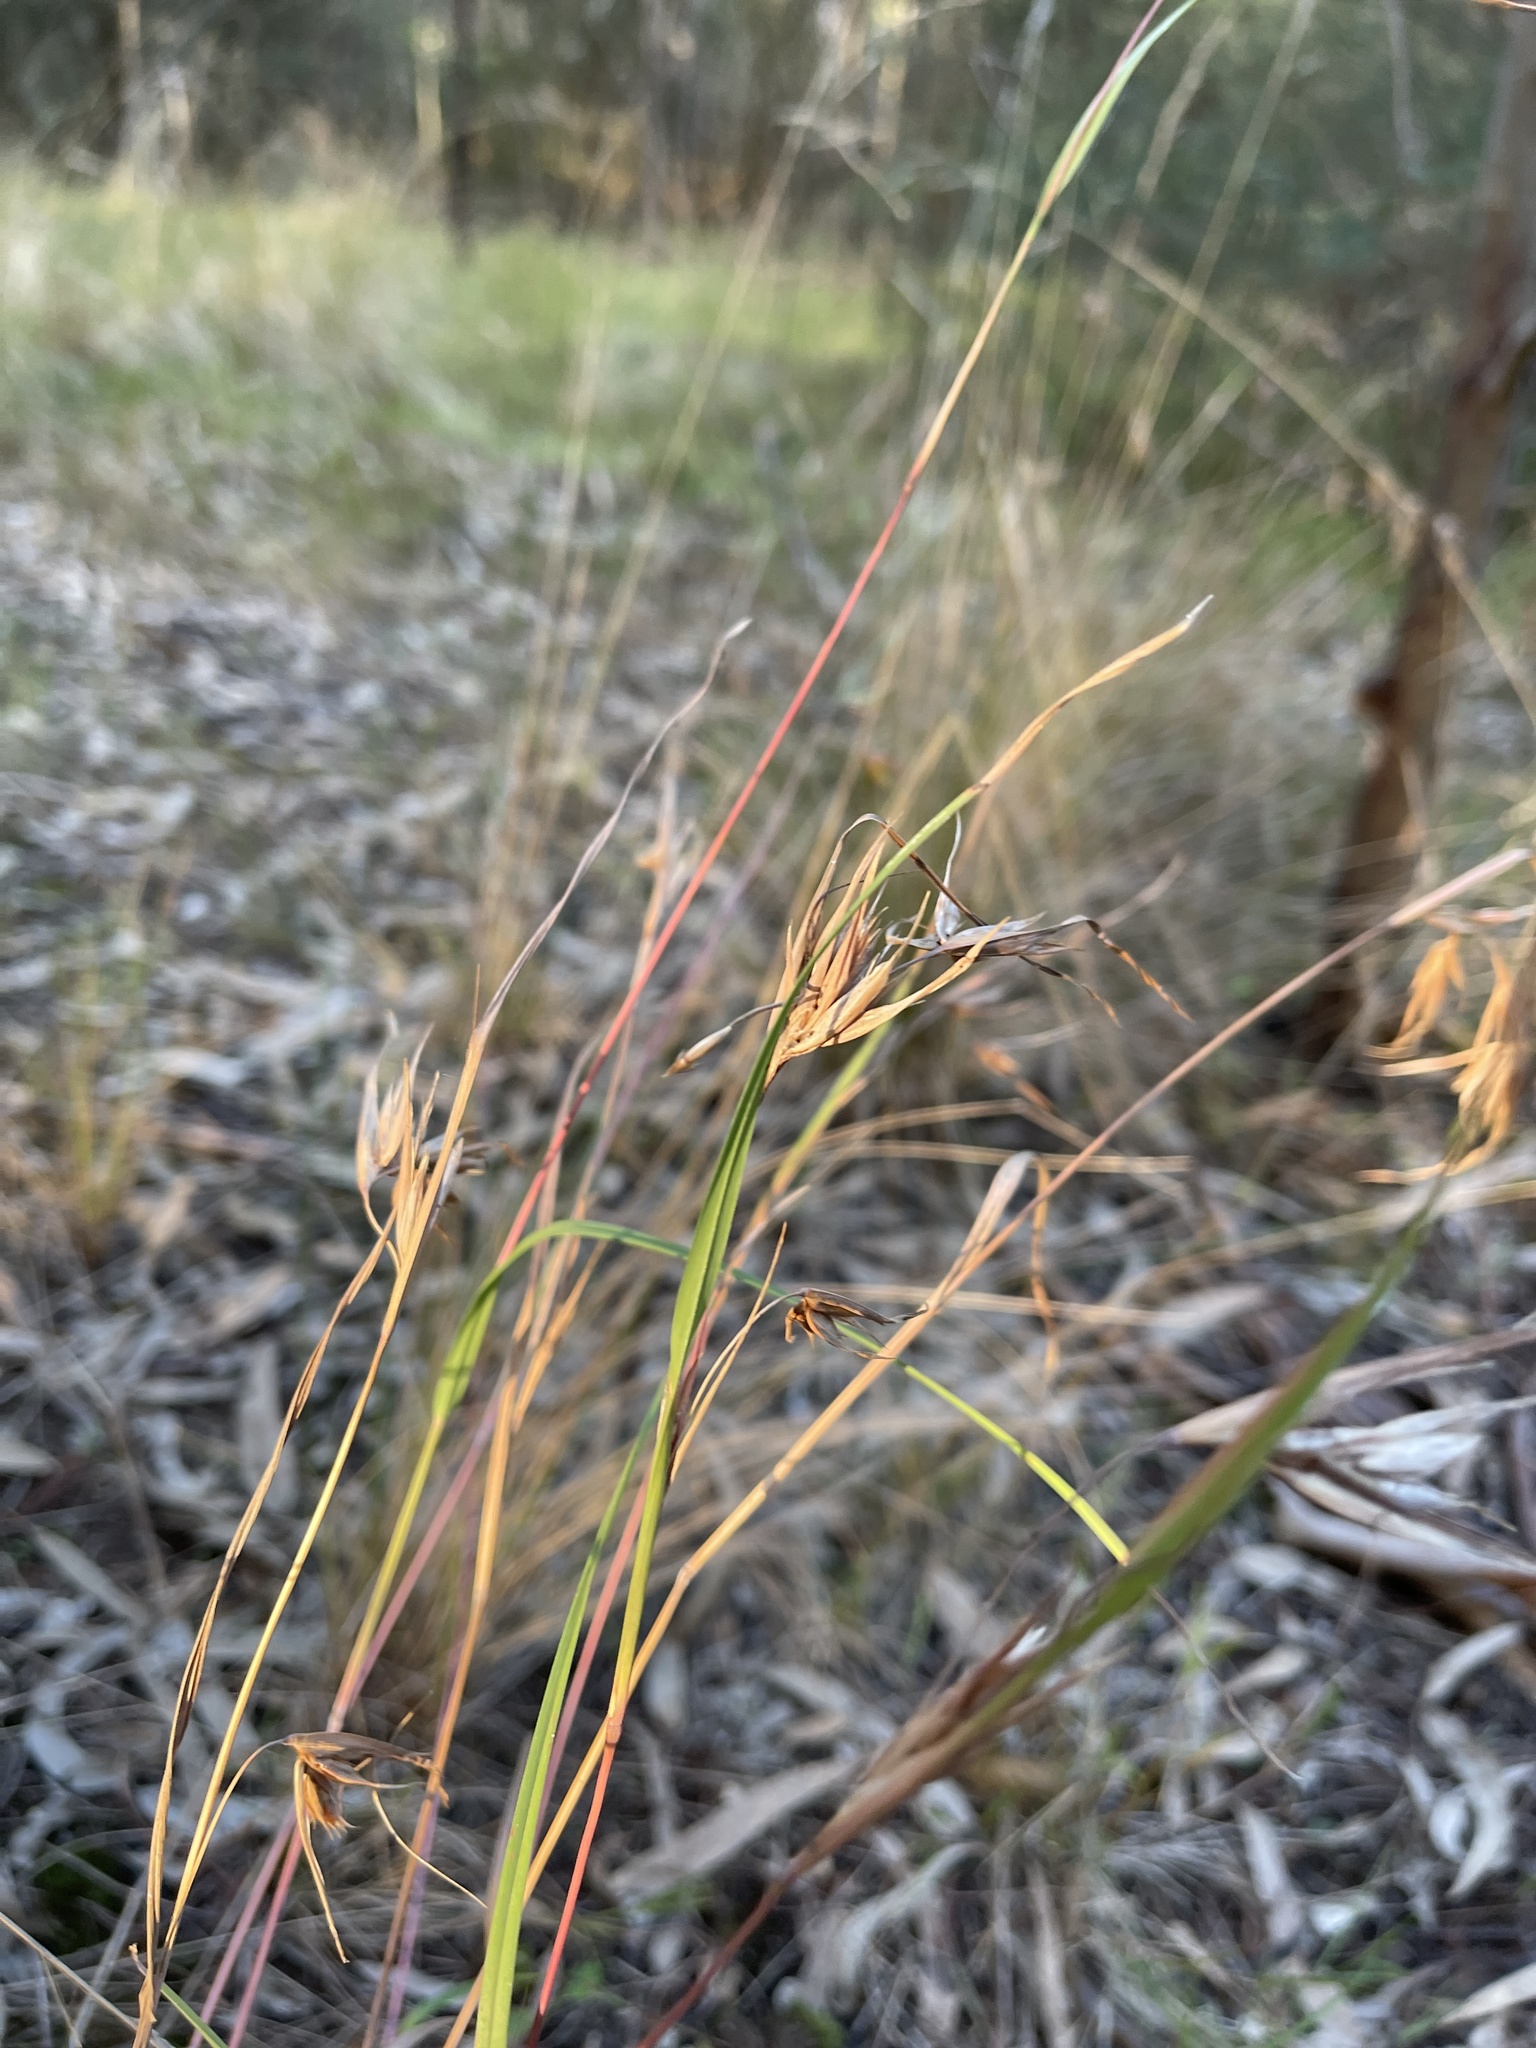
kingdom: Plantae
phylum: Tracheophyta
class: Liliopsida
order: Poales
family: Poaceae
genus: Themeda
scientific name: Themeda triandra
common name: Kangaroo grass
